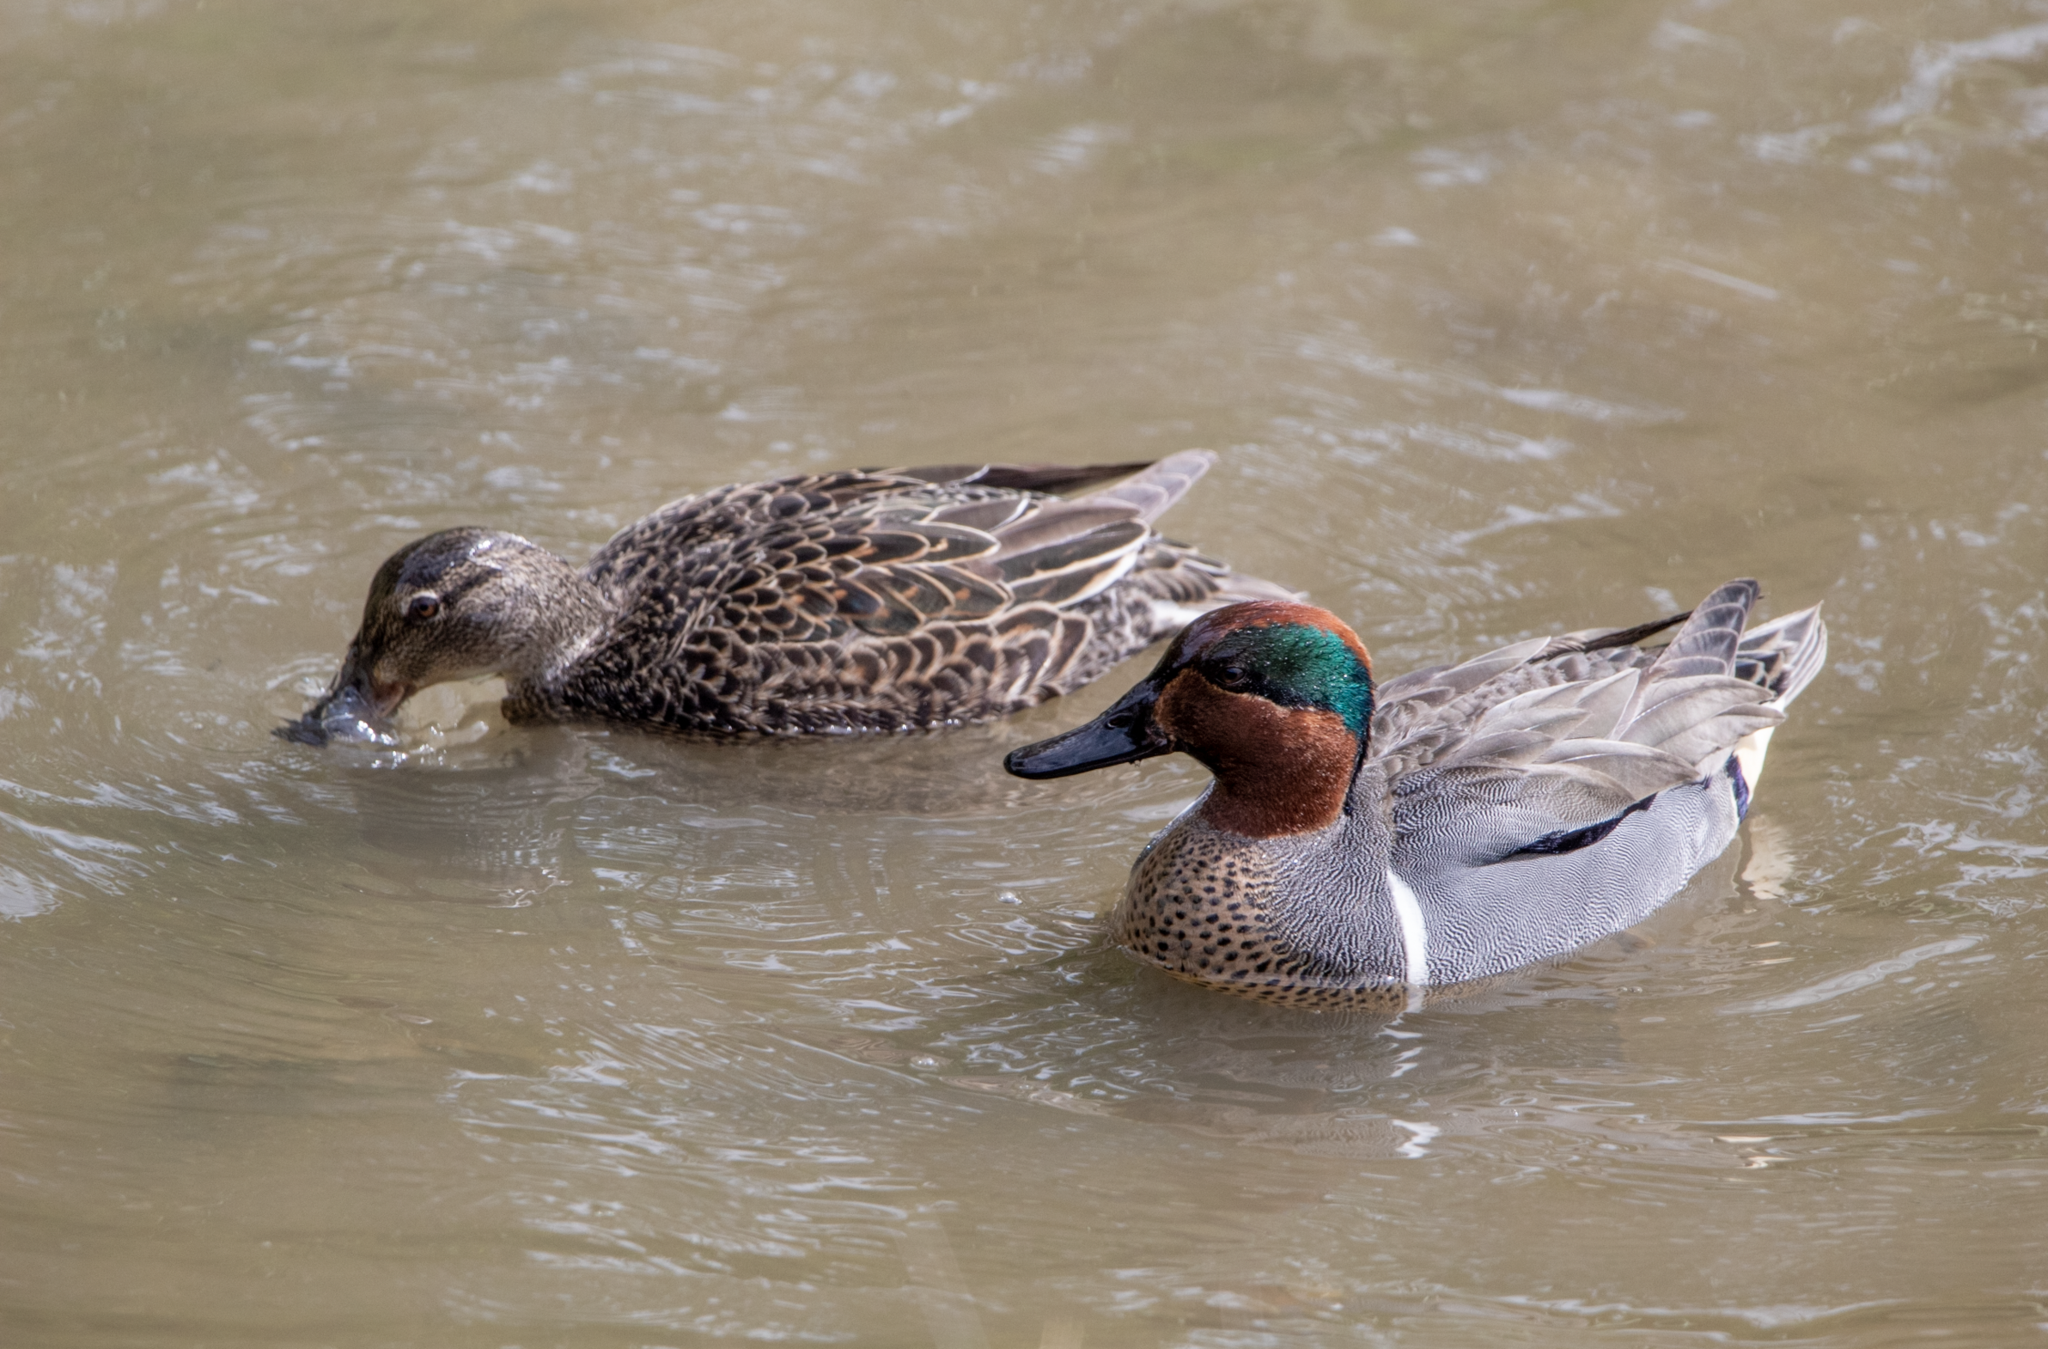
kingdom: Animalia
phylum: Chordata
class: Aves
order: Anseriformes
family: Anatidae
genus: Anas
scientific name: Anas crecca
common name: Eurasian teal
